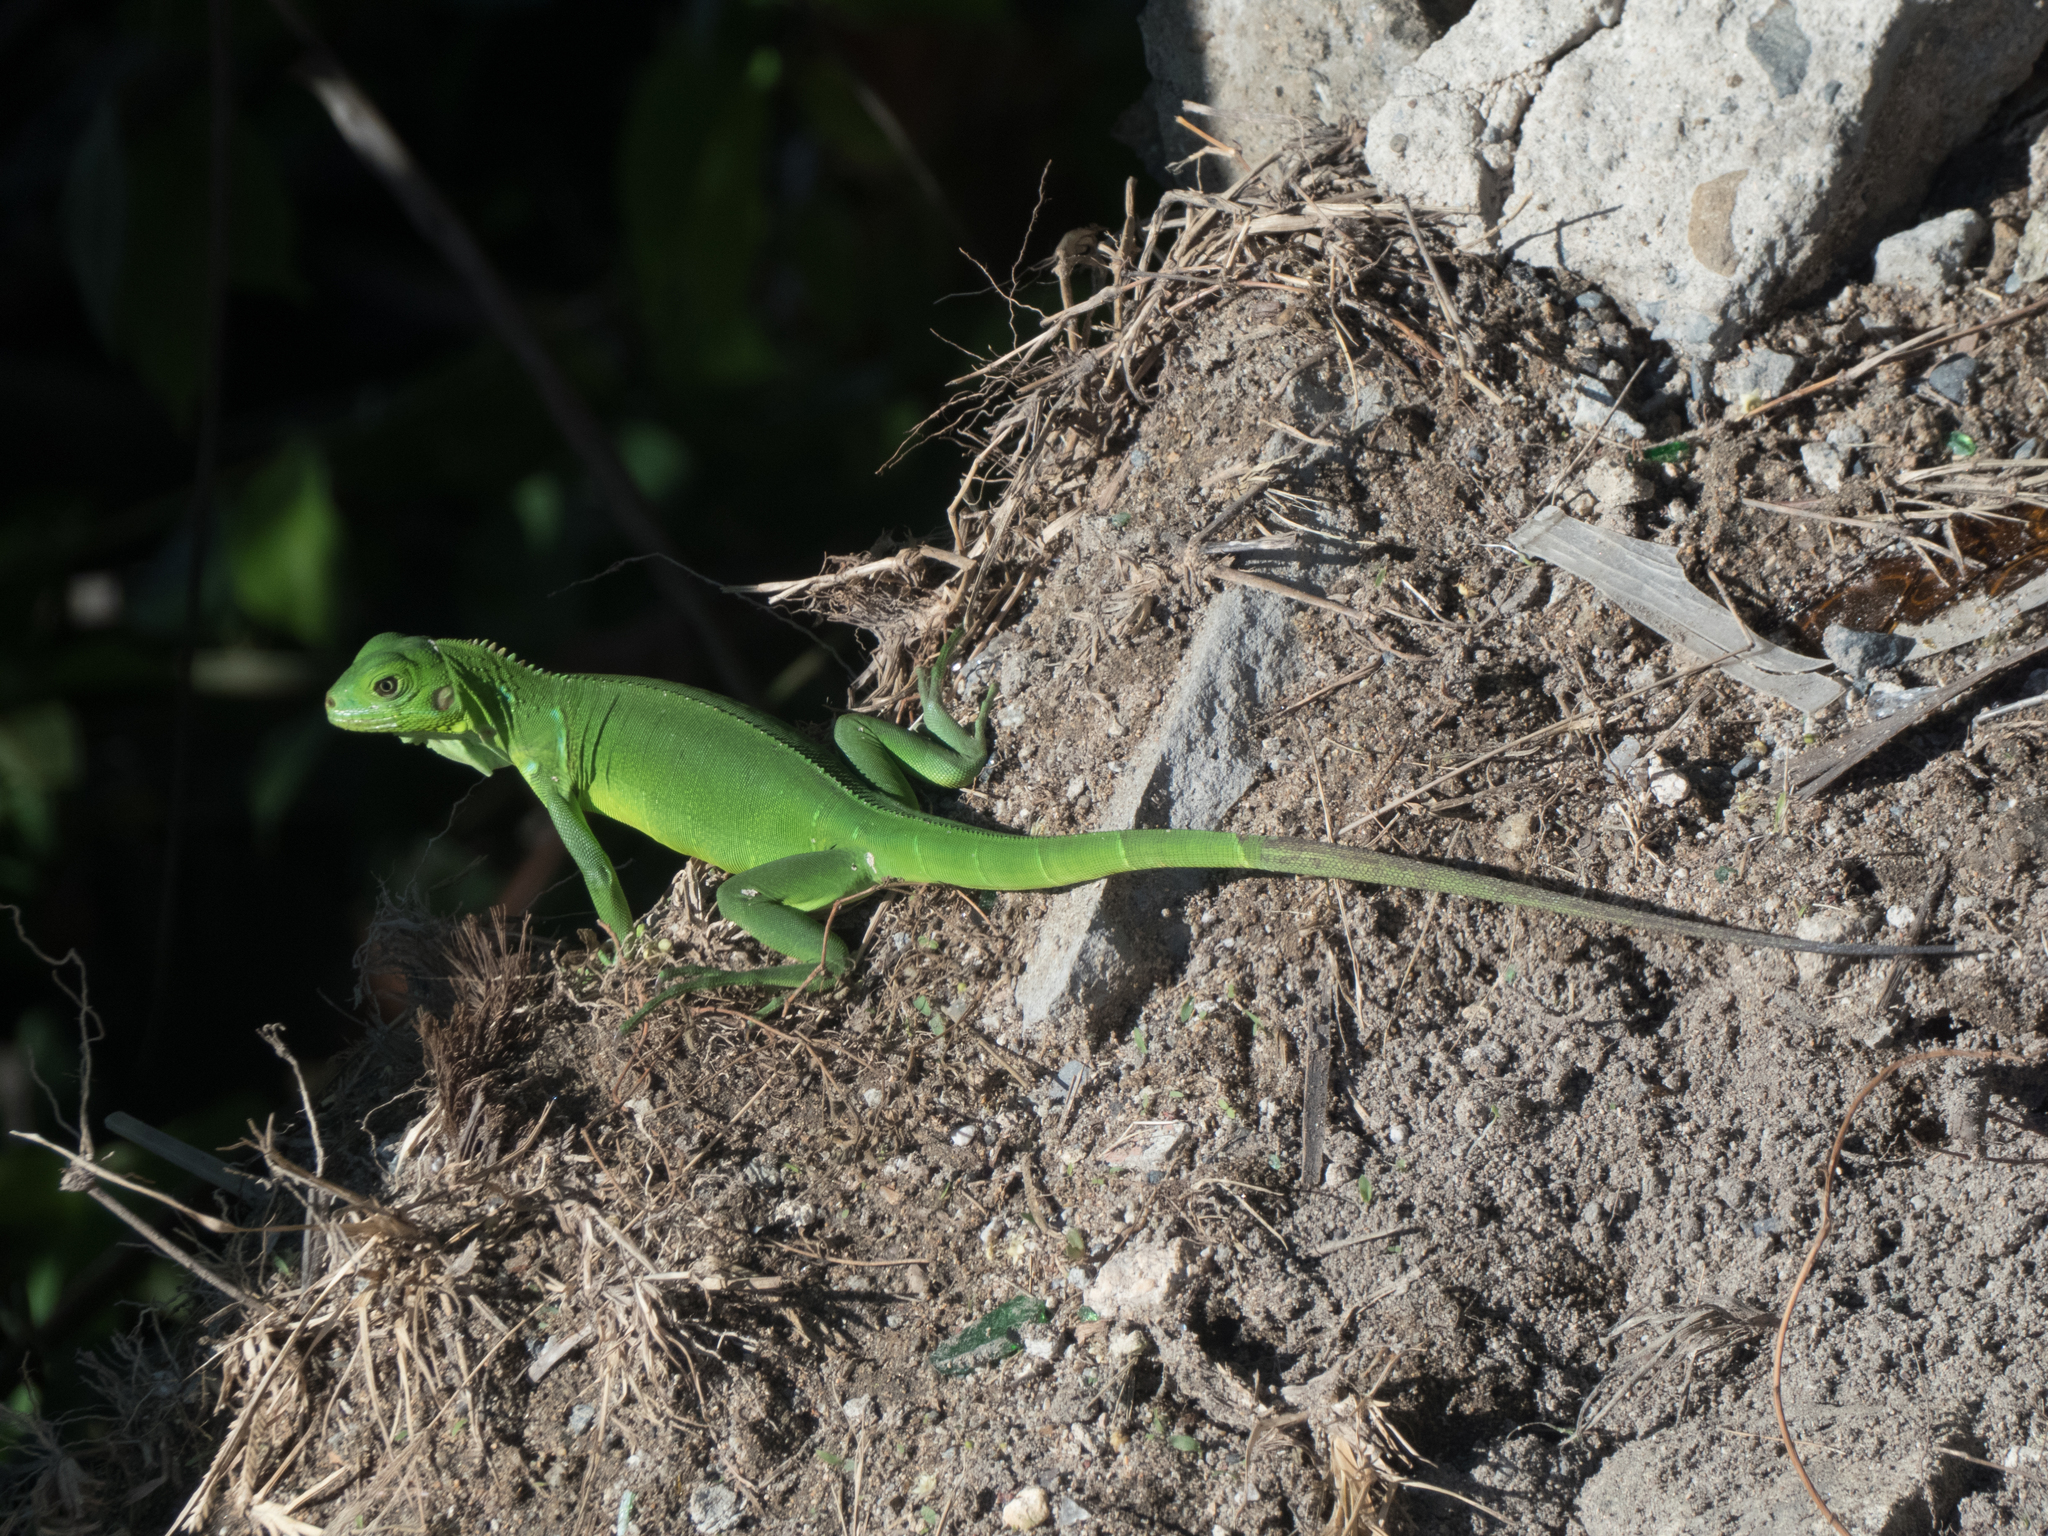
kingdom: Animalia
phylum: Chordata
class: Squamata
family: Iguanidae
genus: Iguana
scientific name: Iguana iguana
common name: Green iguana
